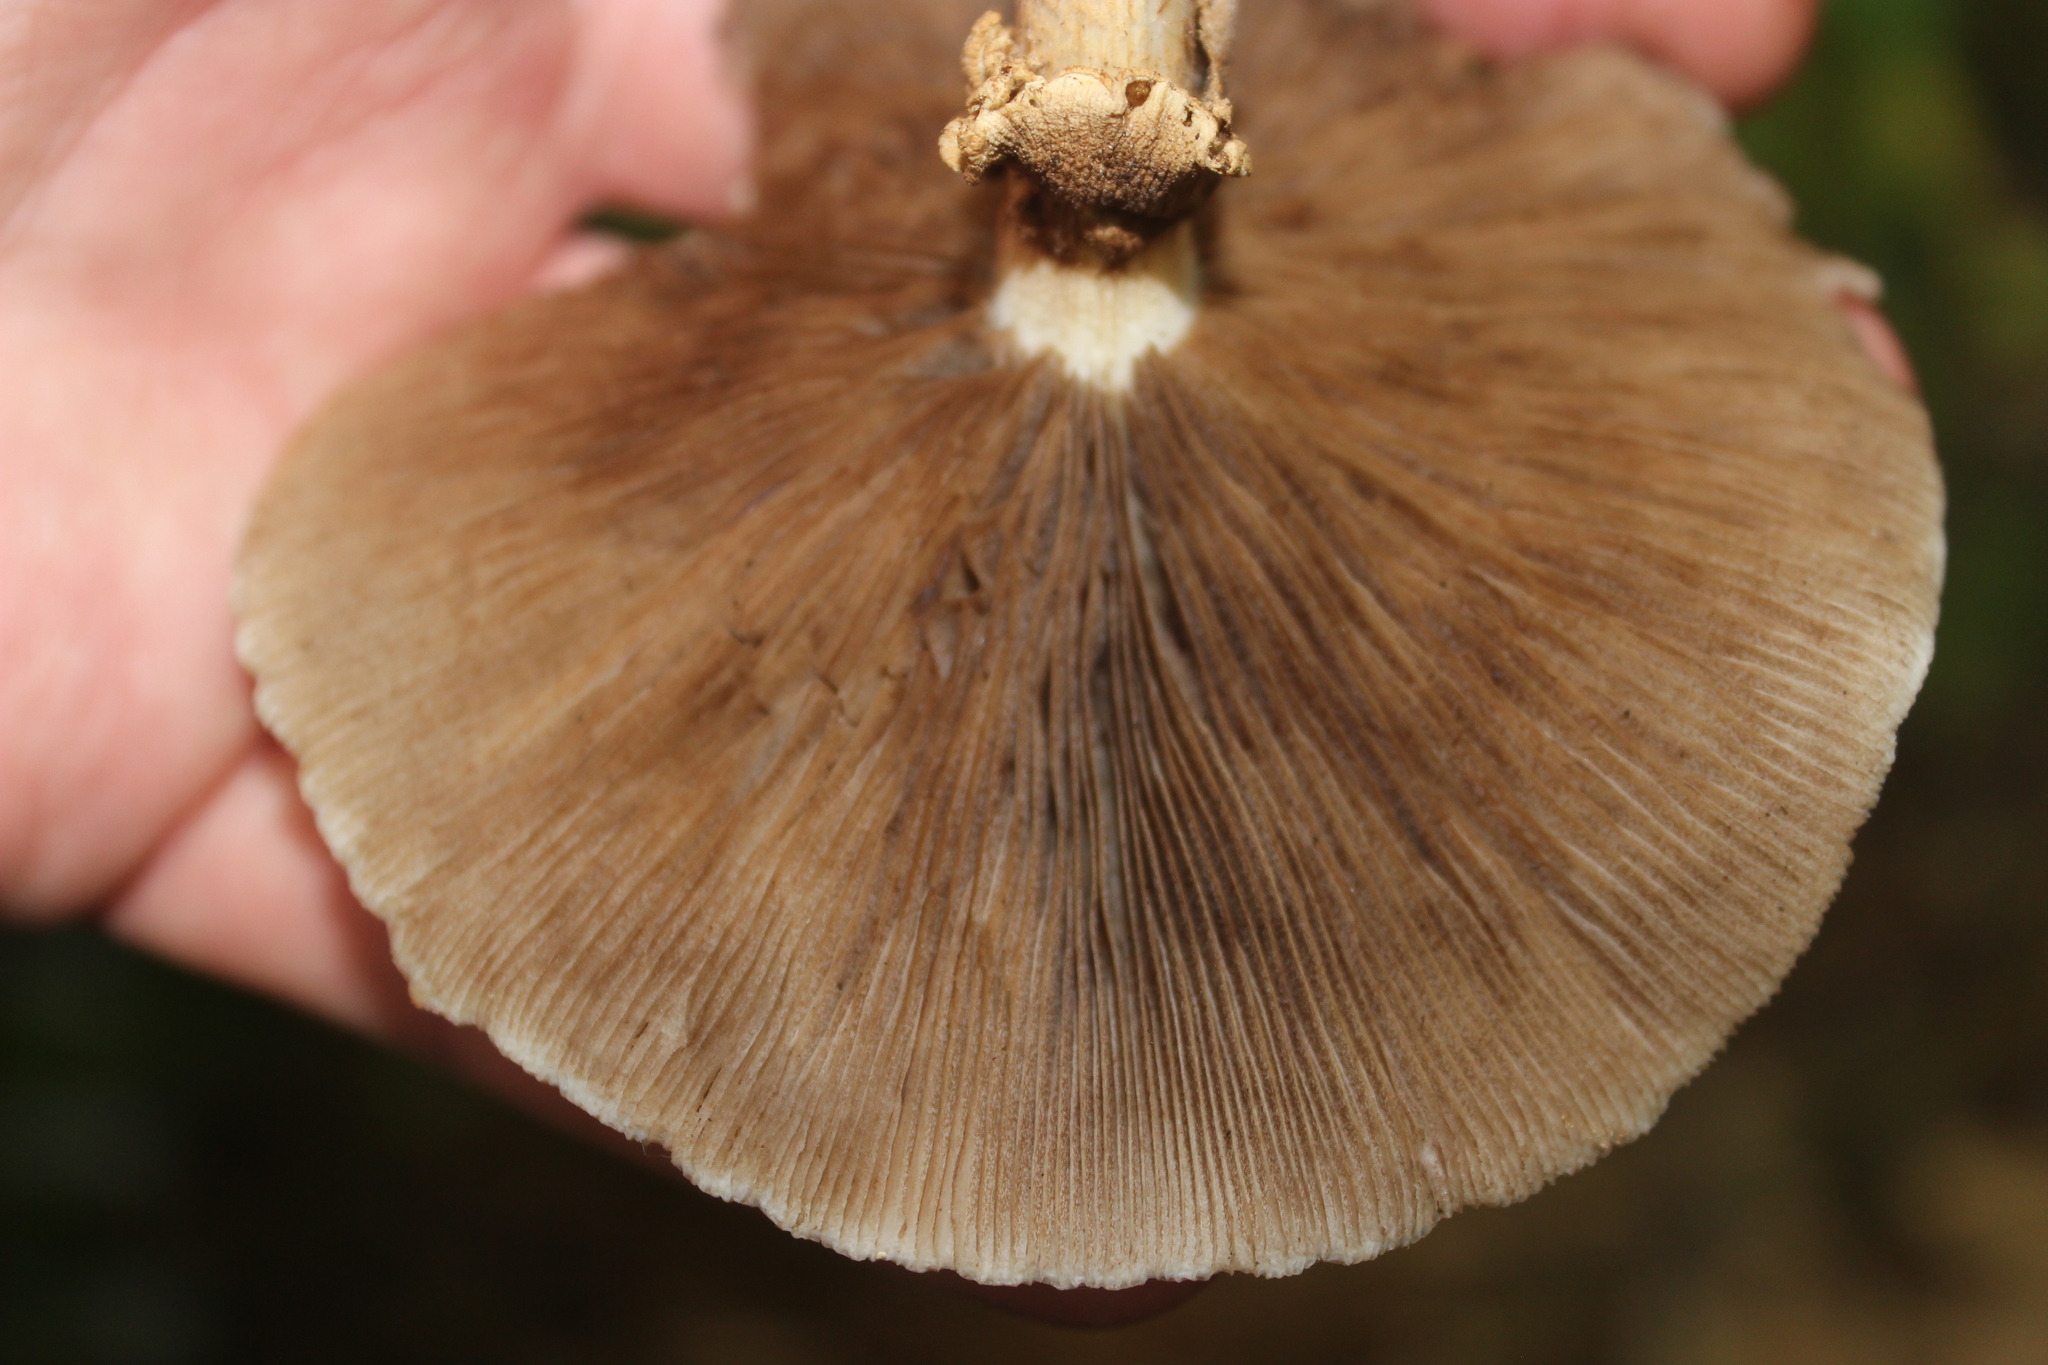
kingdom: Fungi
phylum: Basidiomycota
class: Agaricomycetes
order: Agaricales
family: Tubariaceae
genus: Cyclocybe
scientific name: Cyclocybe parasitica
